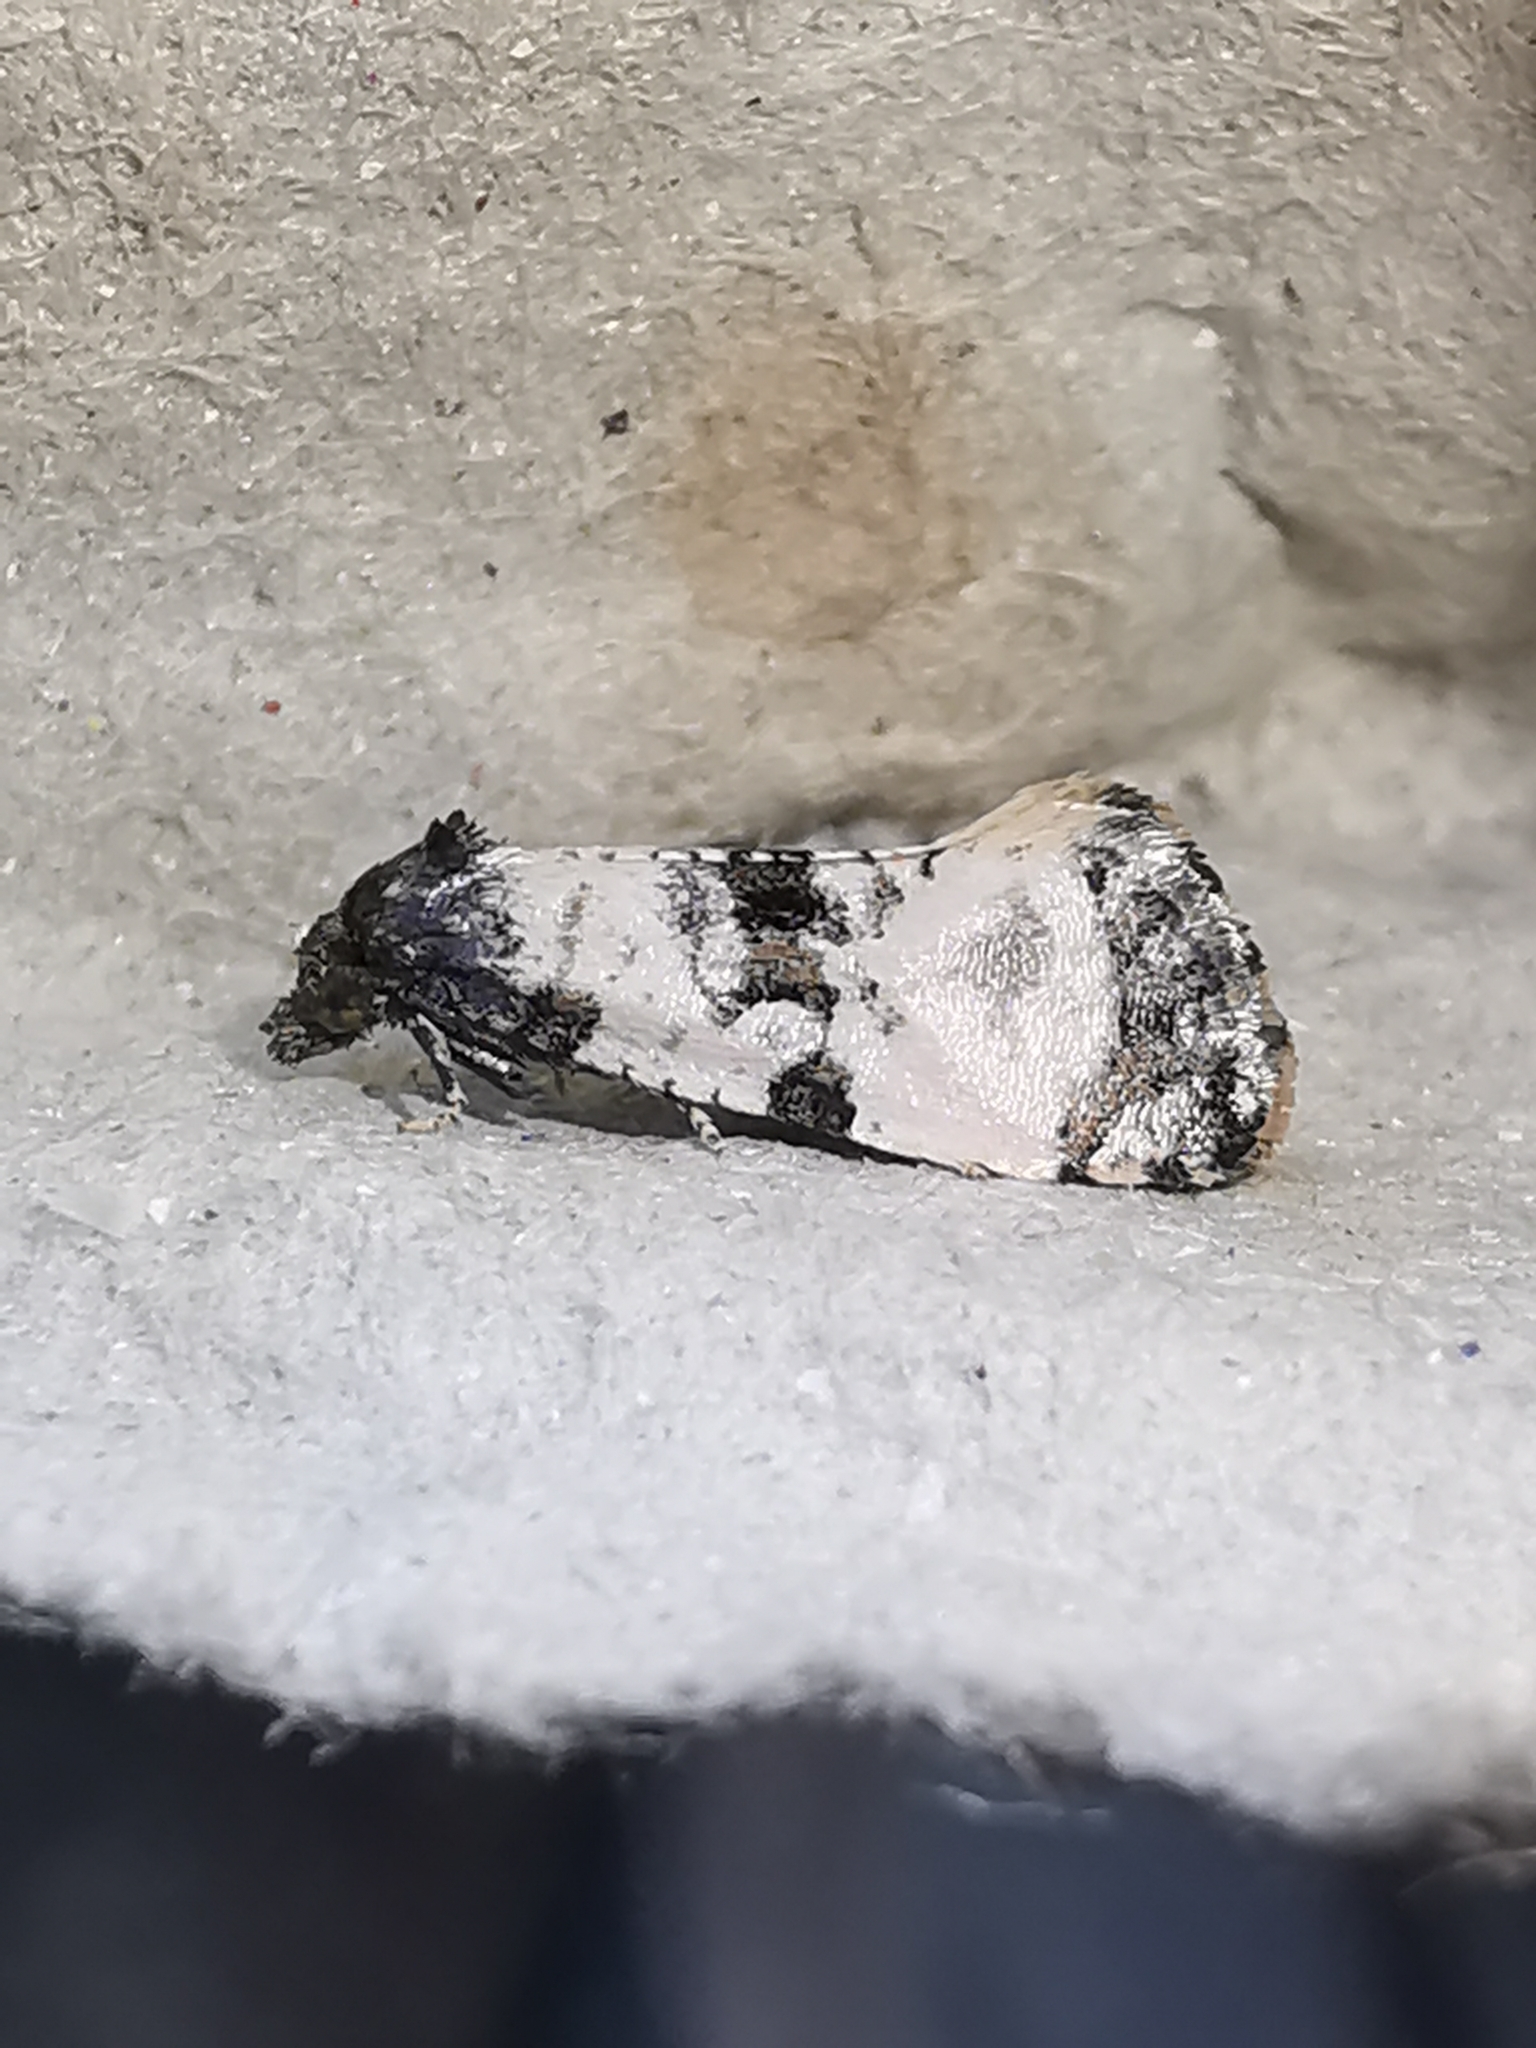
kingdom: Animalia
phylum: Arthropoda
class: Insecta
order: Lepidoptera
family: Tortricidae
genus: Cochylis
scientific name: Cochylis atricapitana
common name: Tortricid moth
